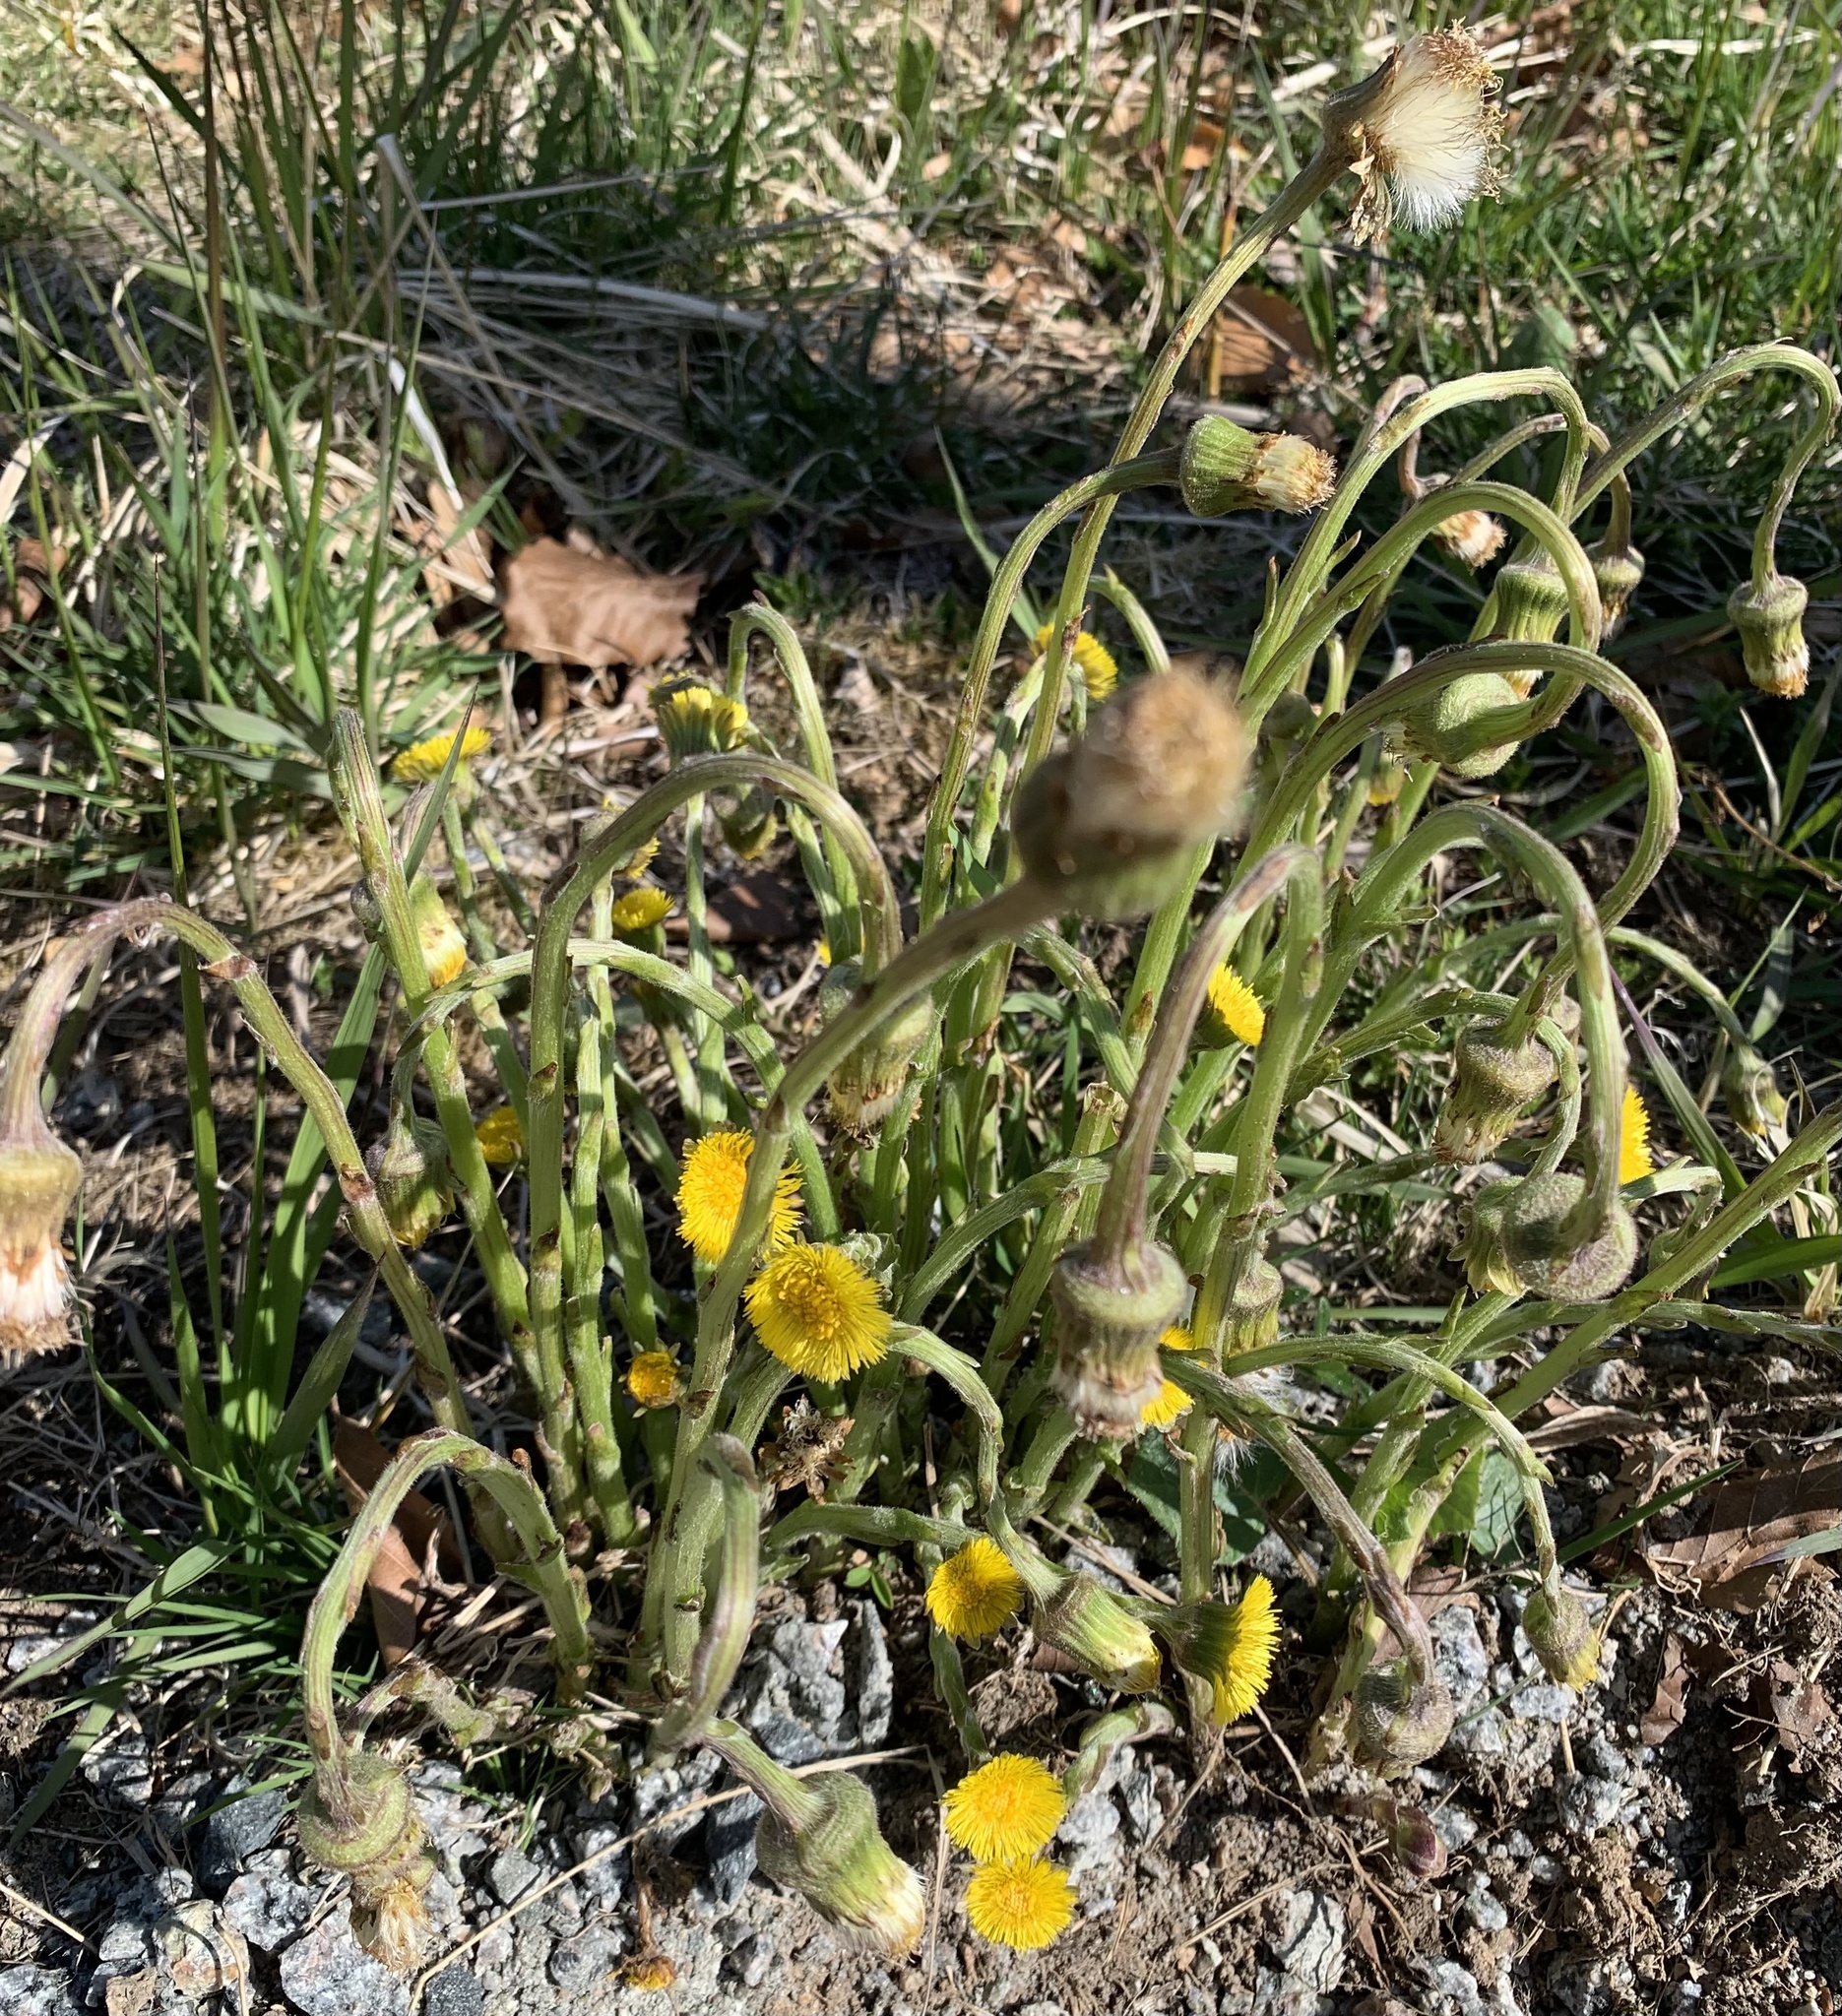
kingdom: Plantae
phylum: Tracheophyta
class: Magnoliopsida
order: Asterales
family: Asteraceae
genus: Tussilago
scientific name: Tussilago farfara
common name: Coltsfoot
